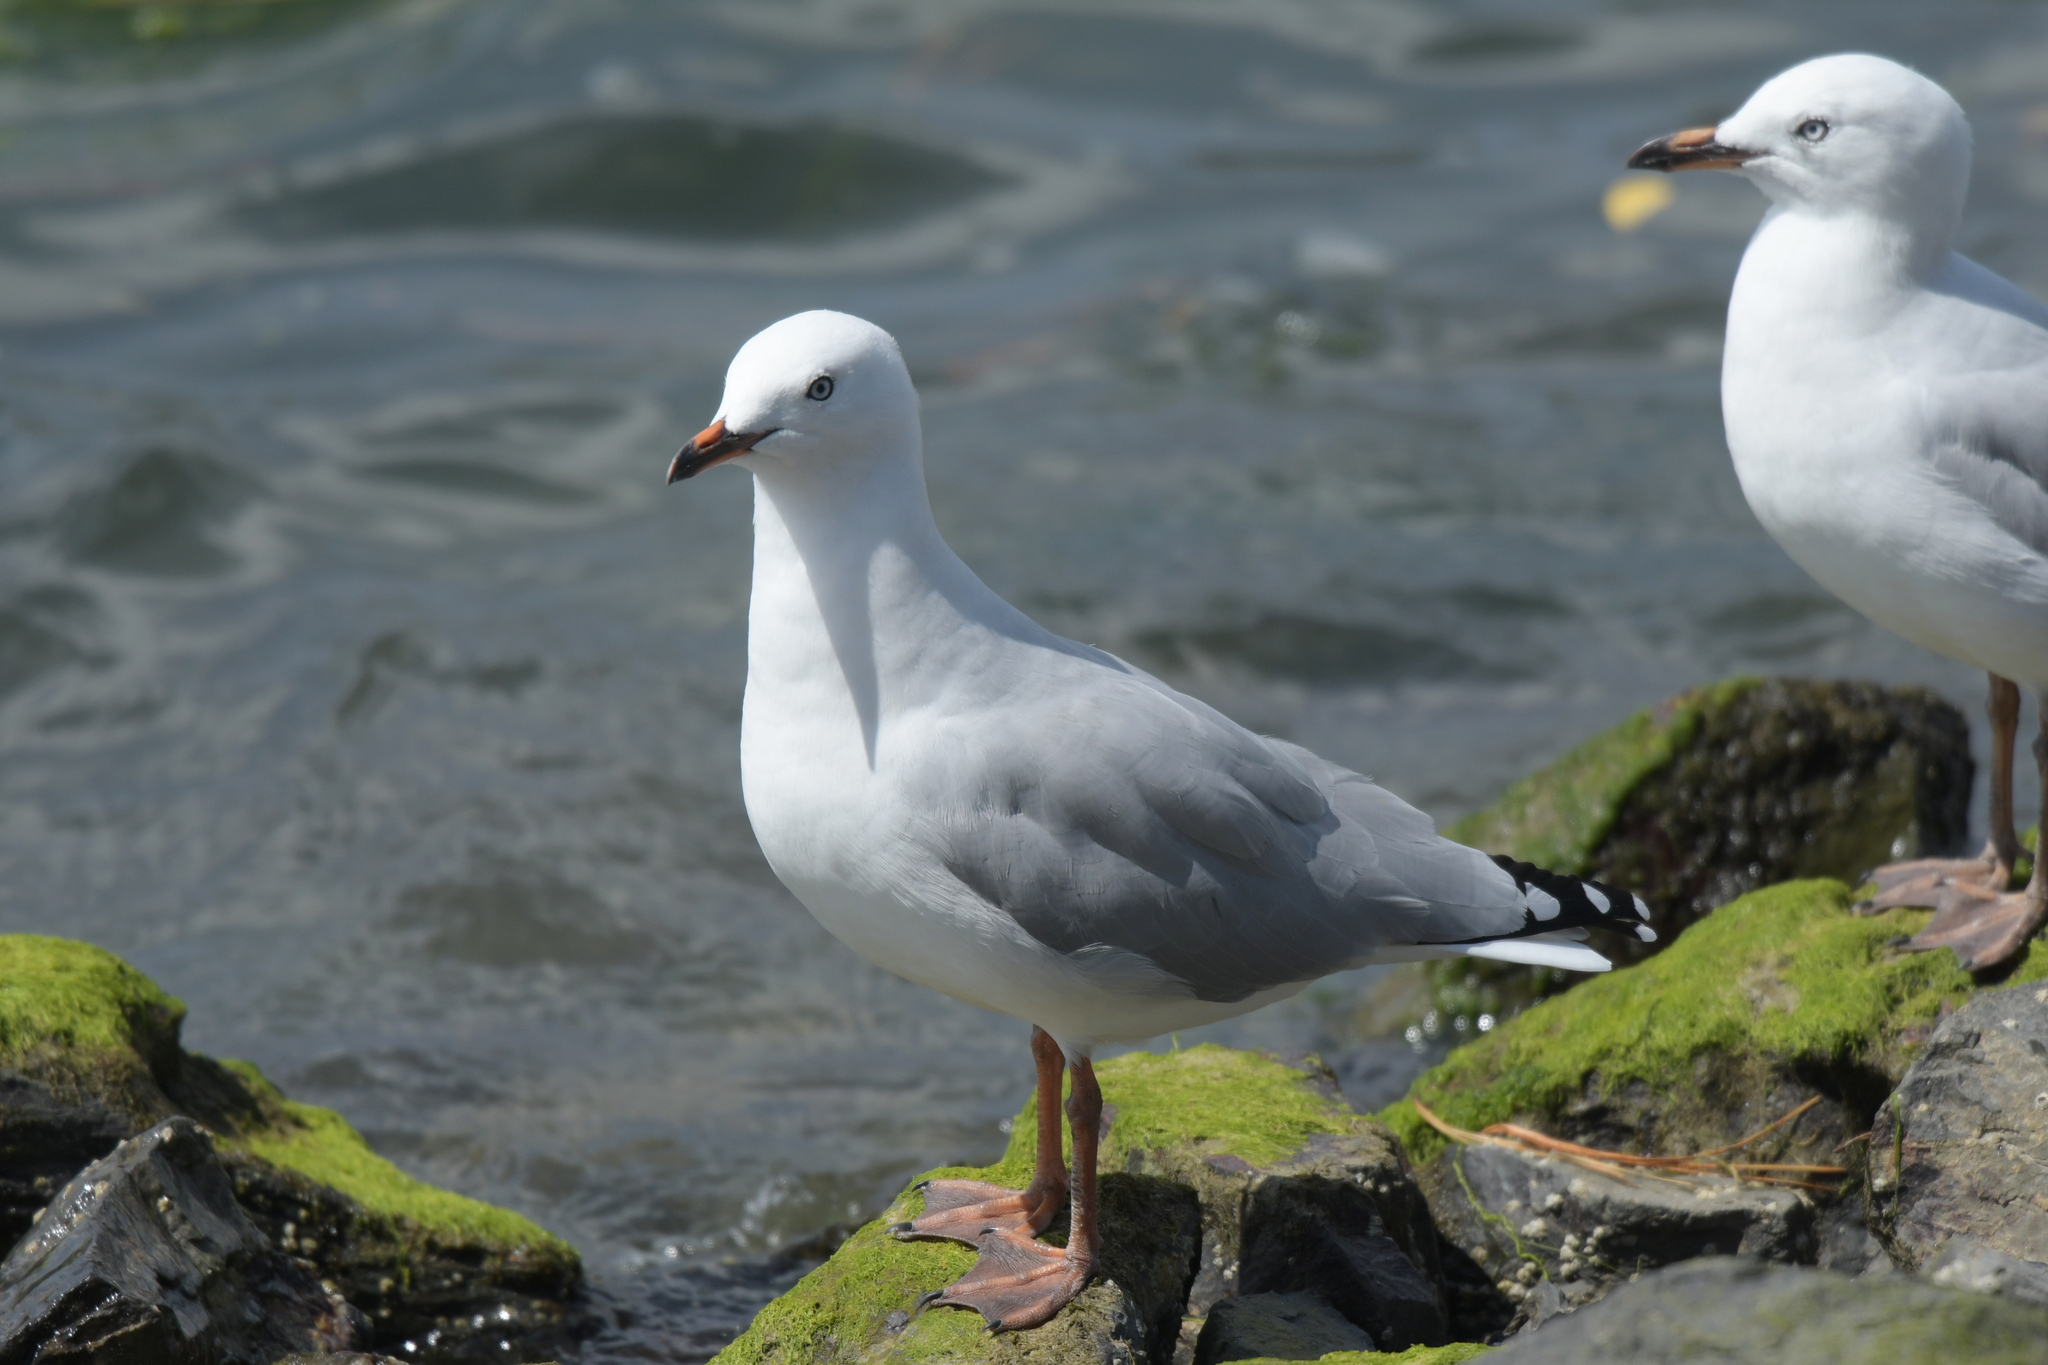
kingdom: Animalia
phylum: Chordata
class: Aves
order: Charadriiformes
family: Laridae
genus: Chroicocephalus
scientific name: Chroicocephalus novaehollandiae
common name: Silver gull
